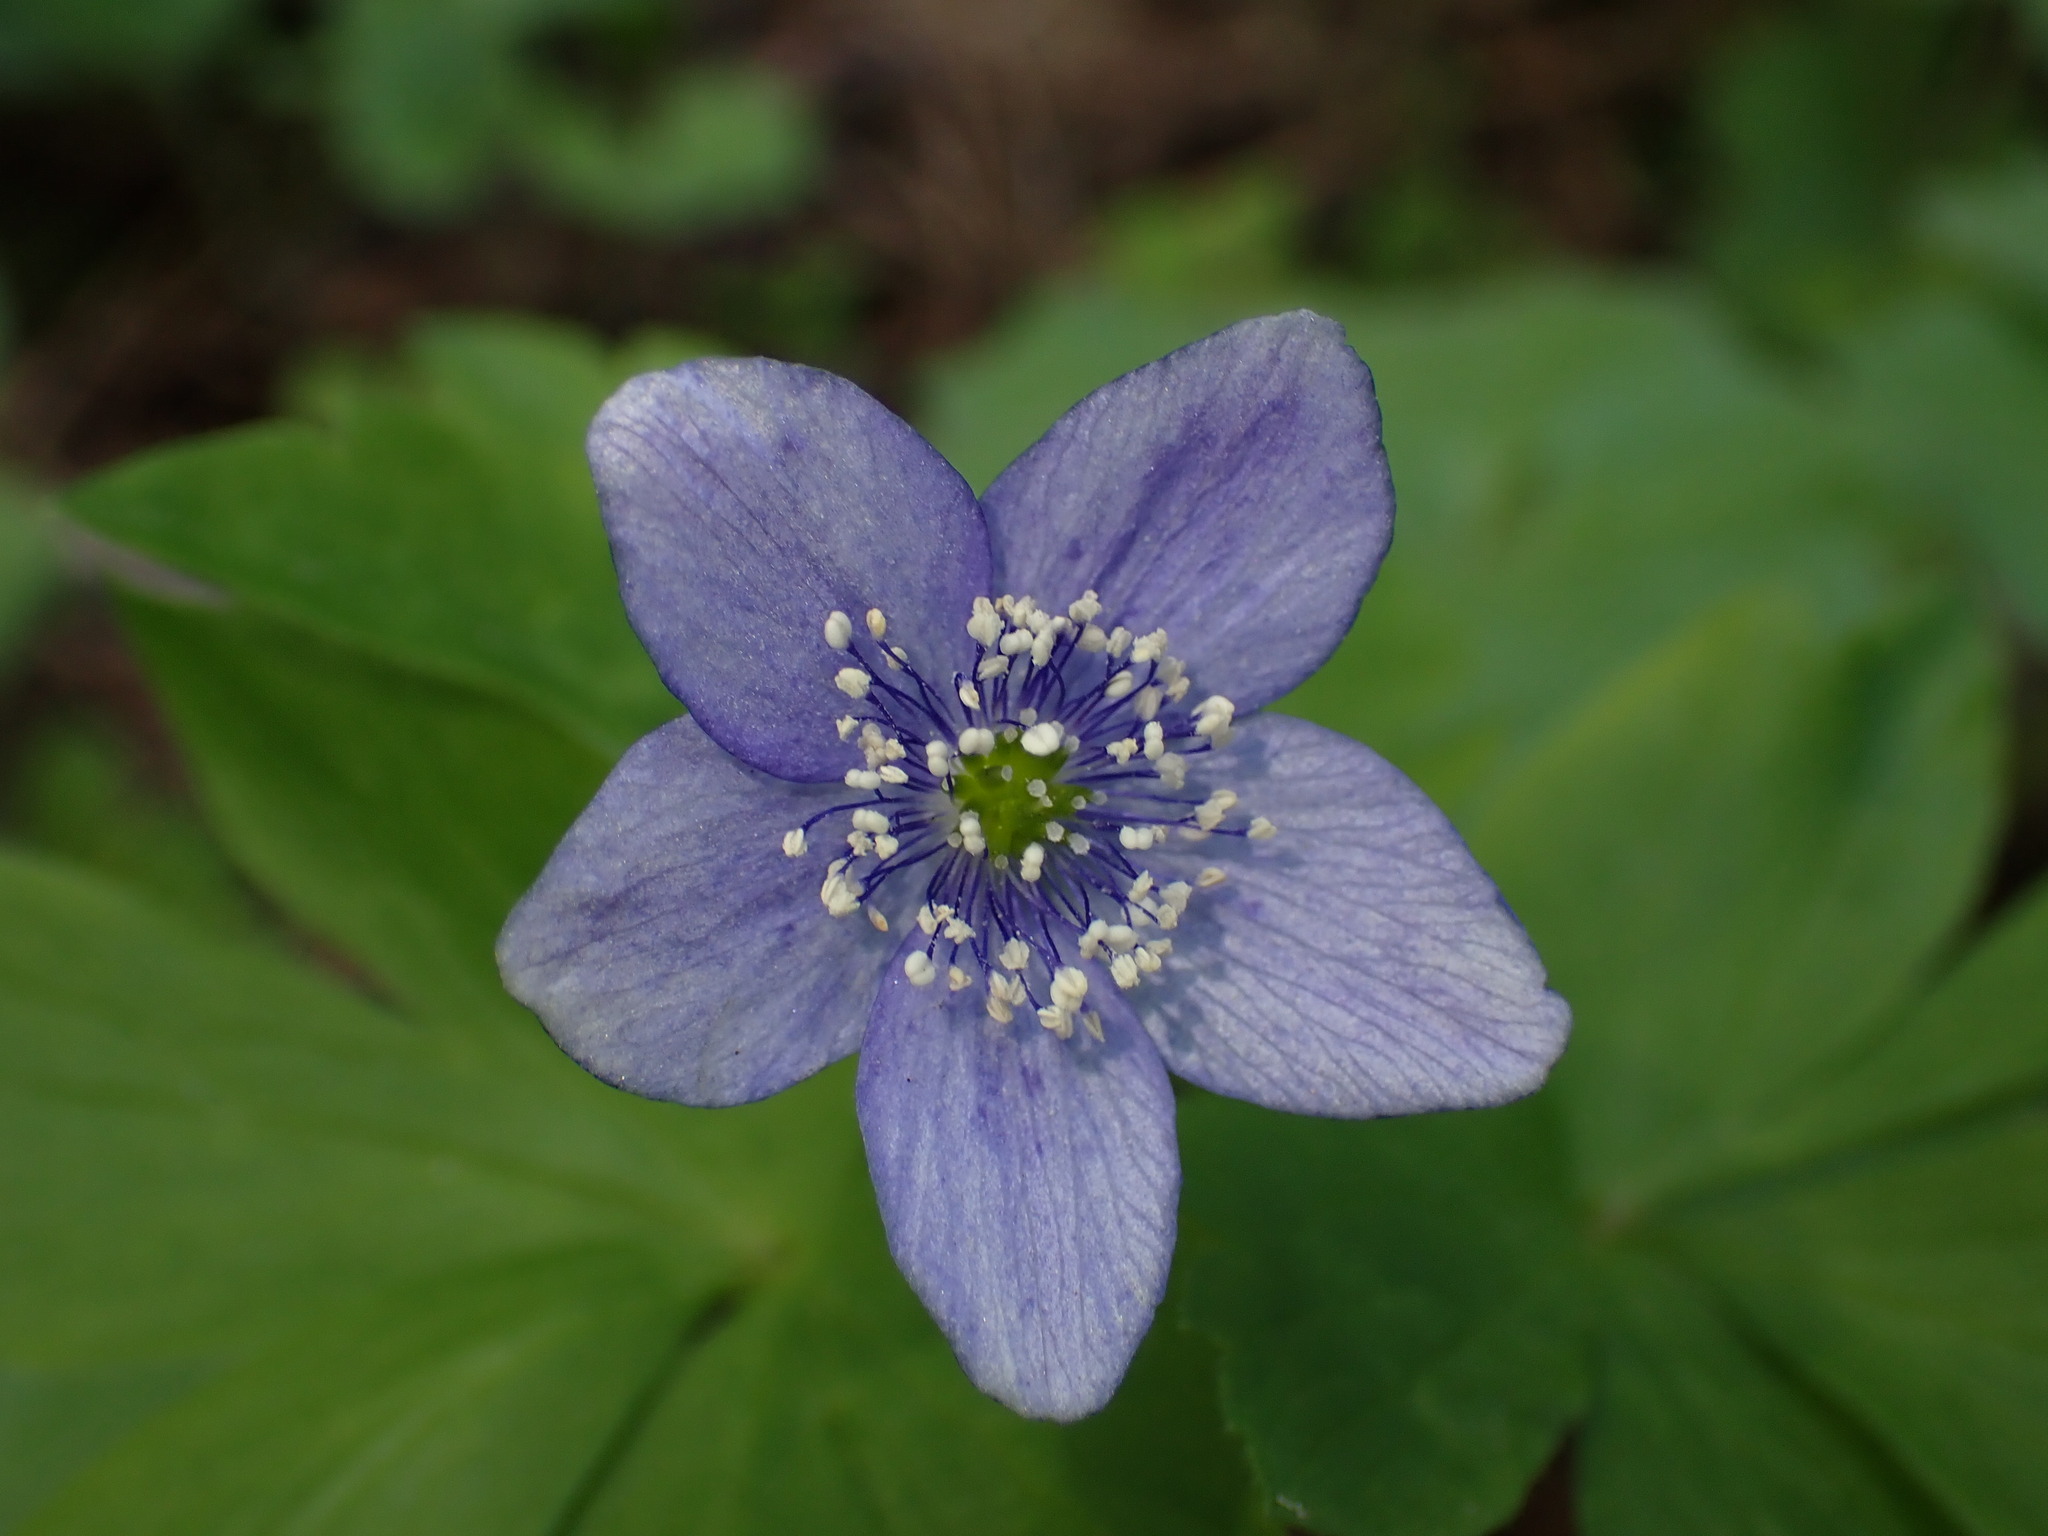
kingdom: Plantae
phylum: Tracheophyta
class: Magnoliopsida
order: Ranunculales
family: Ranunculaceae
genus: Anemone
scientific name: Anemone oregana
